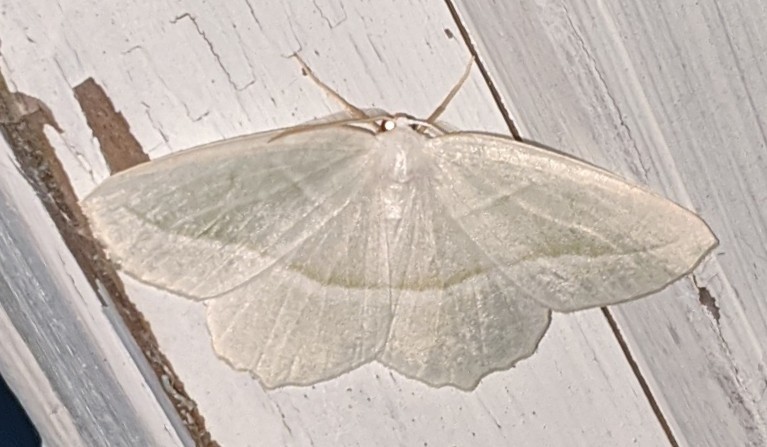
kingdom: Animalia
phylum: Arthropoda
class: Insecta
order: Lepidoptera
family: Geometridae
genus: Campaea
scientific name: Campaea perlata
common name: Fringed looper
